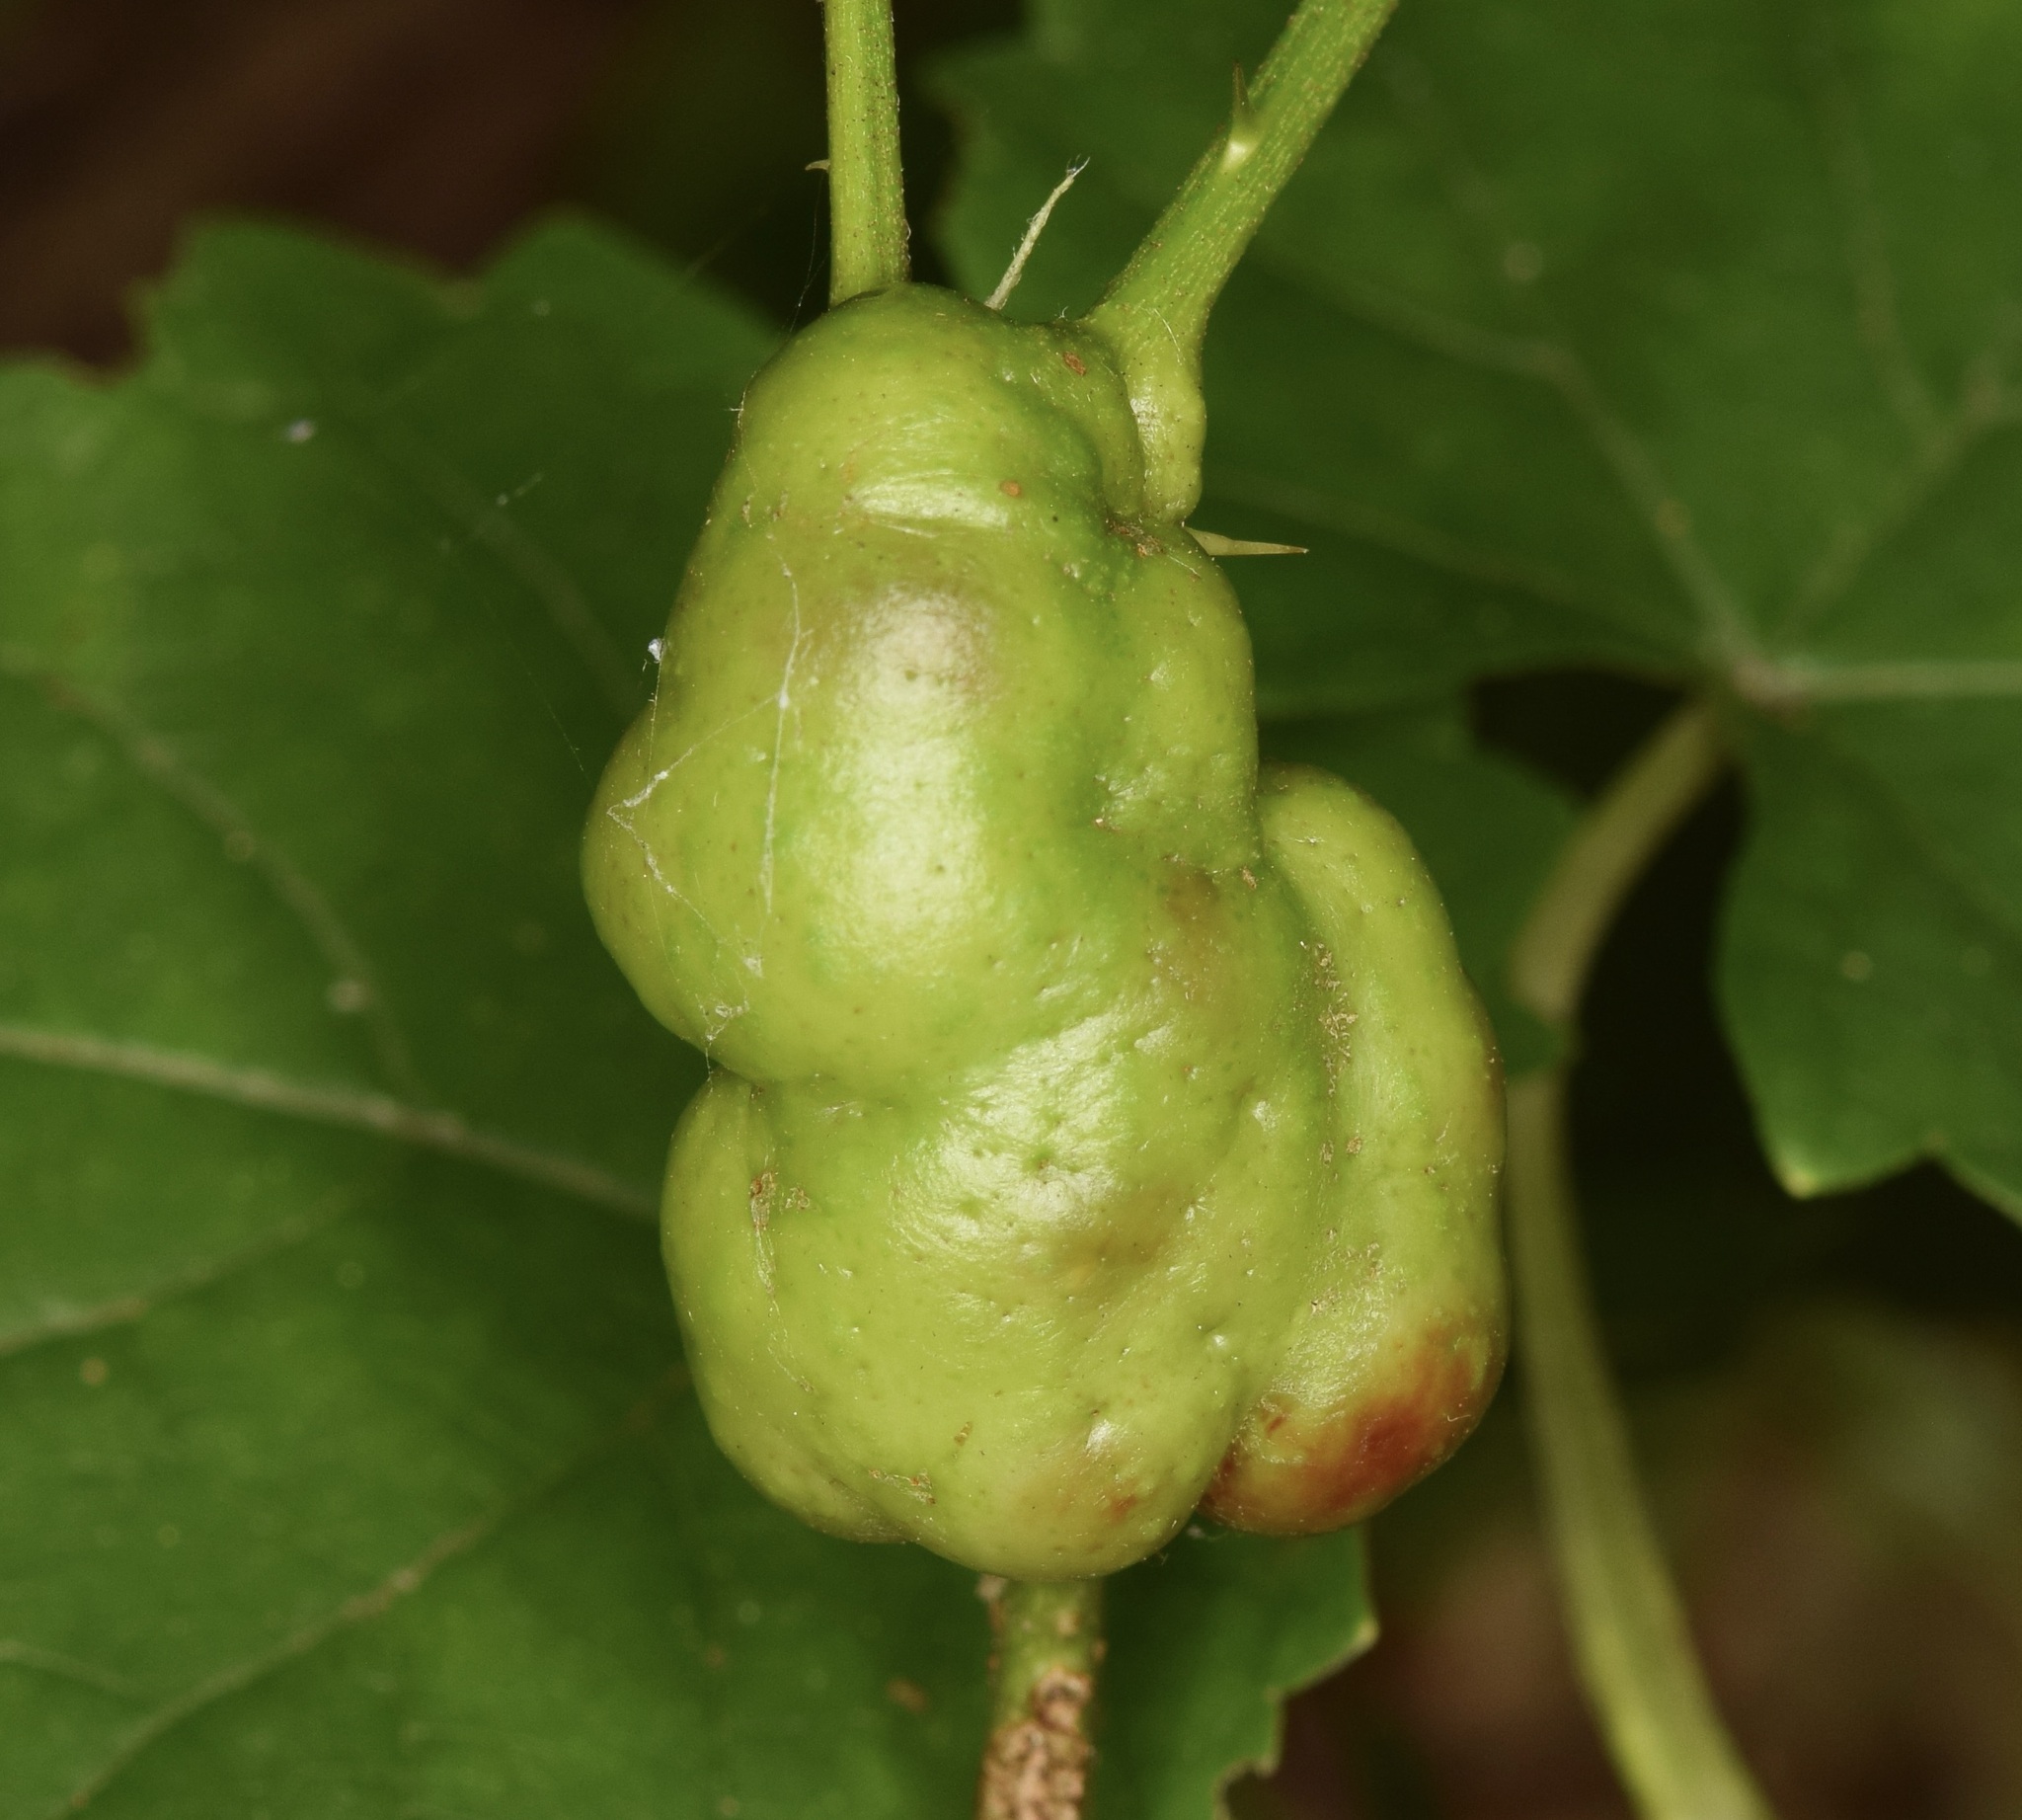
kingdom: Animalia
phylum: Arthropoda
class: Insecta
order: Hymenoptera
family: Cynipidae
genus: Diastrophus
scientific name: Diastrophus
